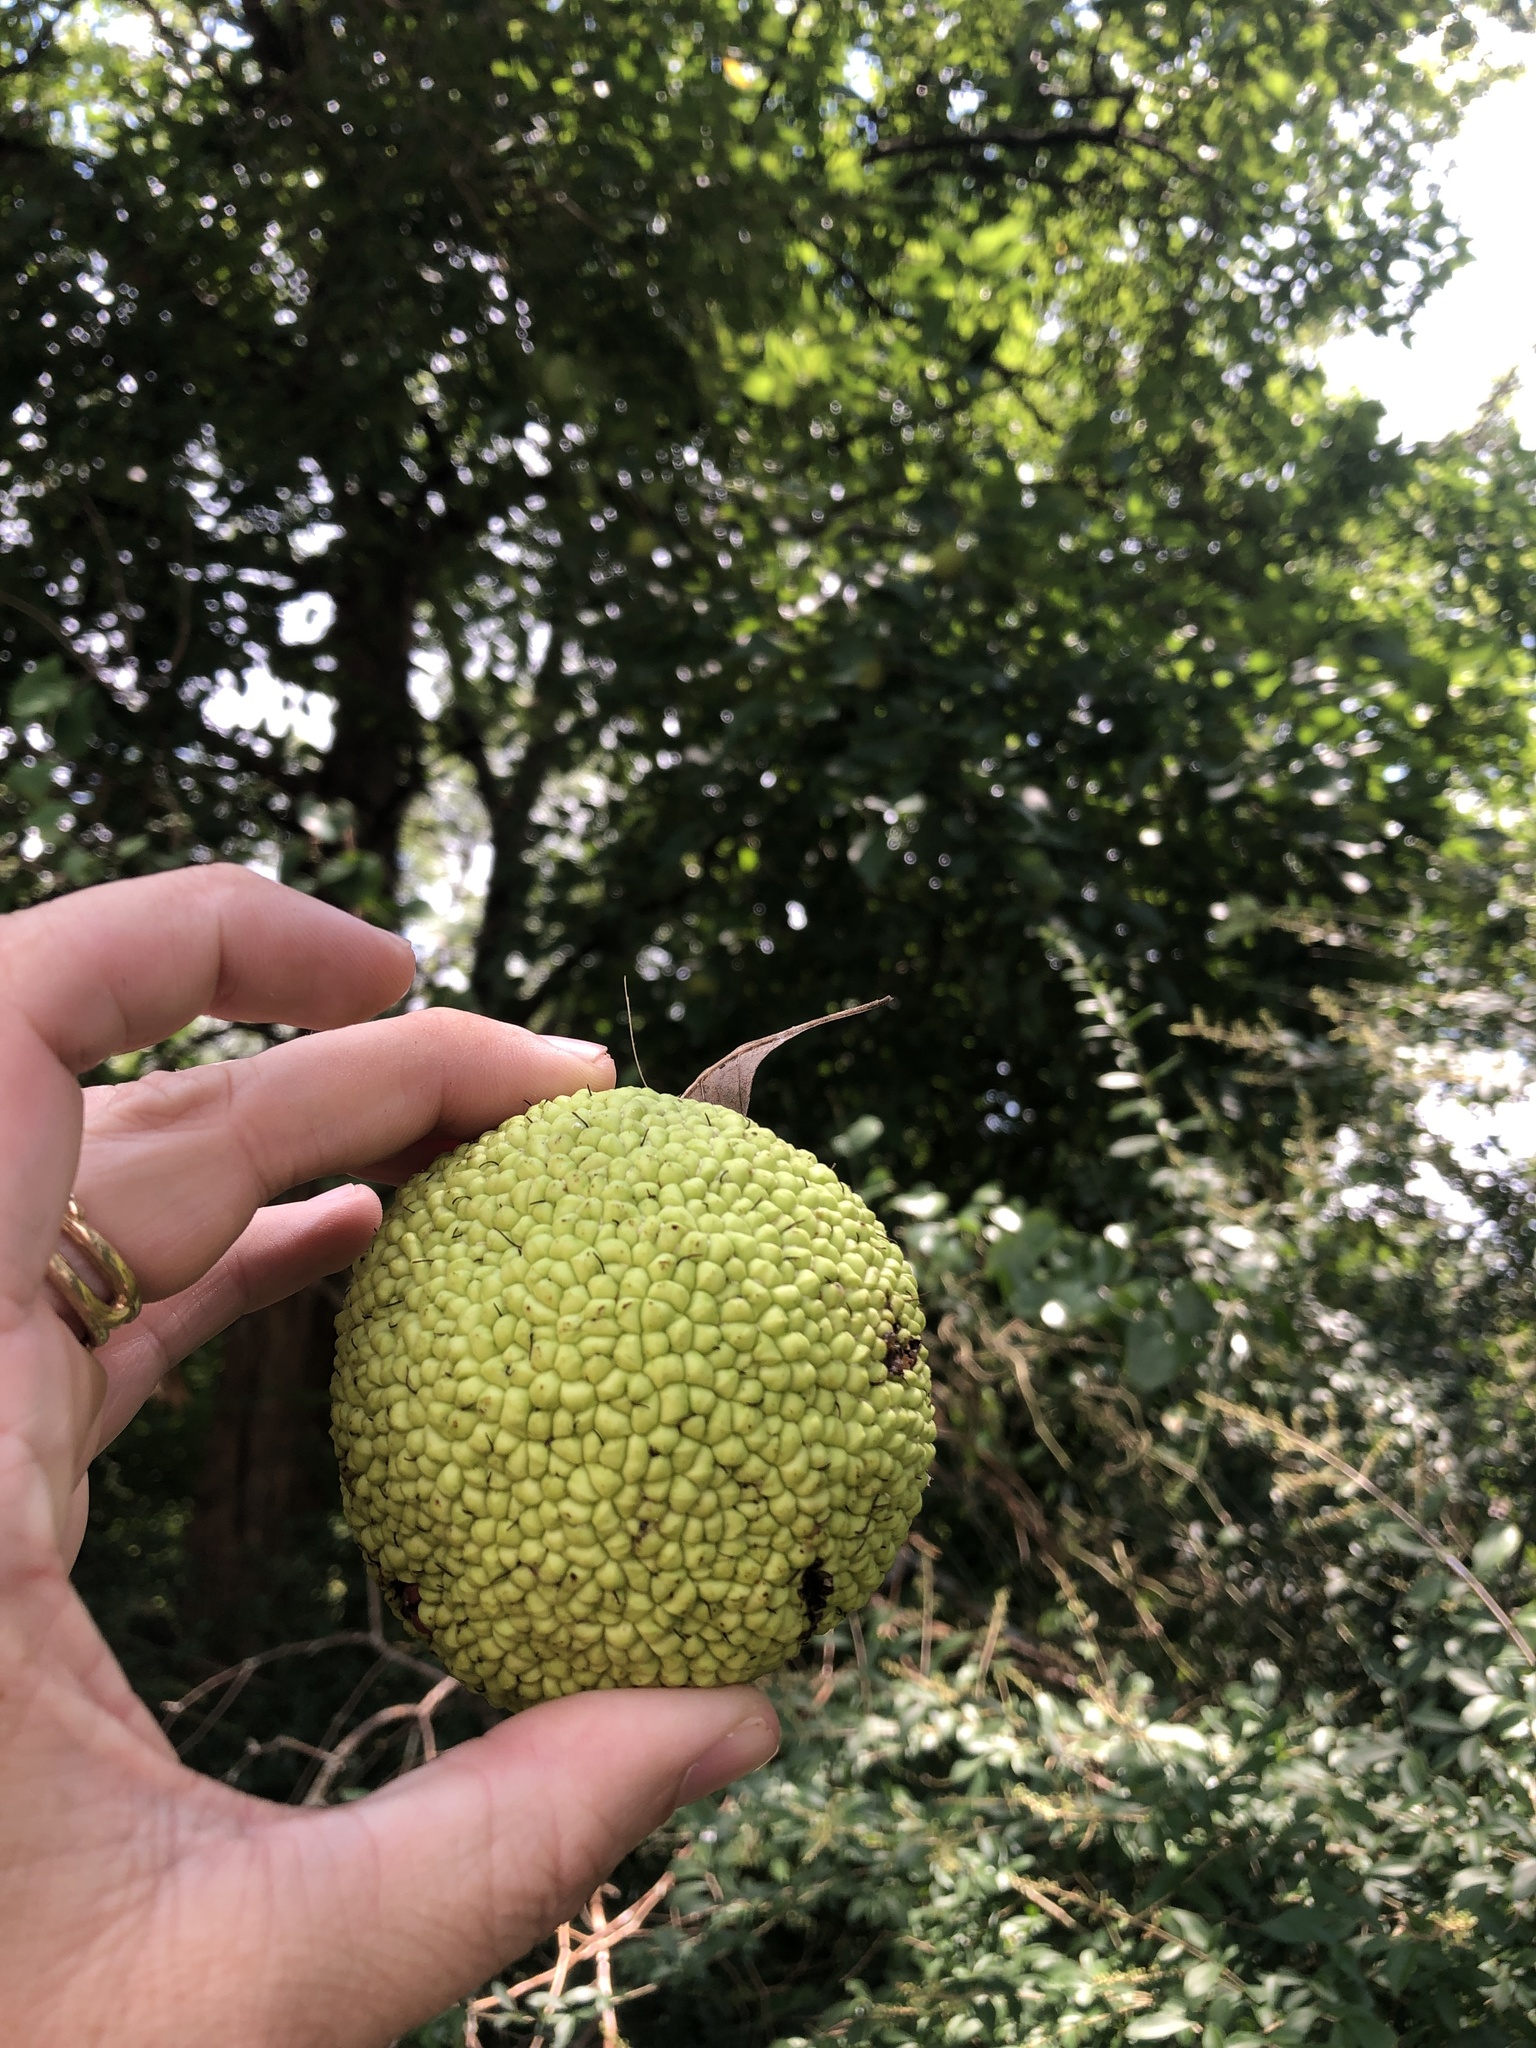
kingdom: Plantae
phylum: Tracheophyta
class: Magnoliopsida
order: Rosales
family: Moraceae
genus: Maclura
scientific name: Maclura pomifera
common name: Osage-orange
